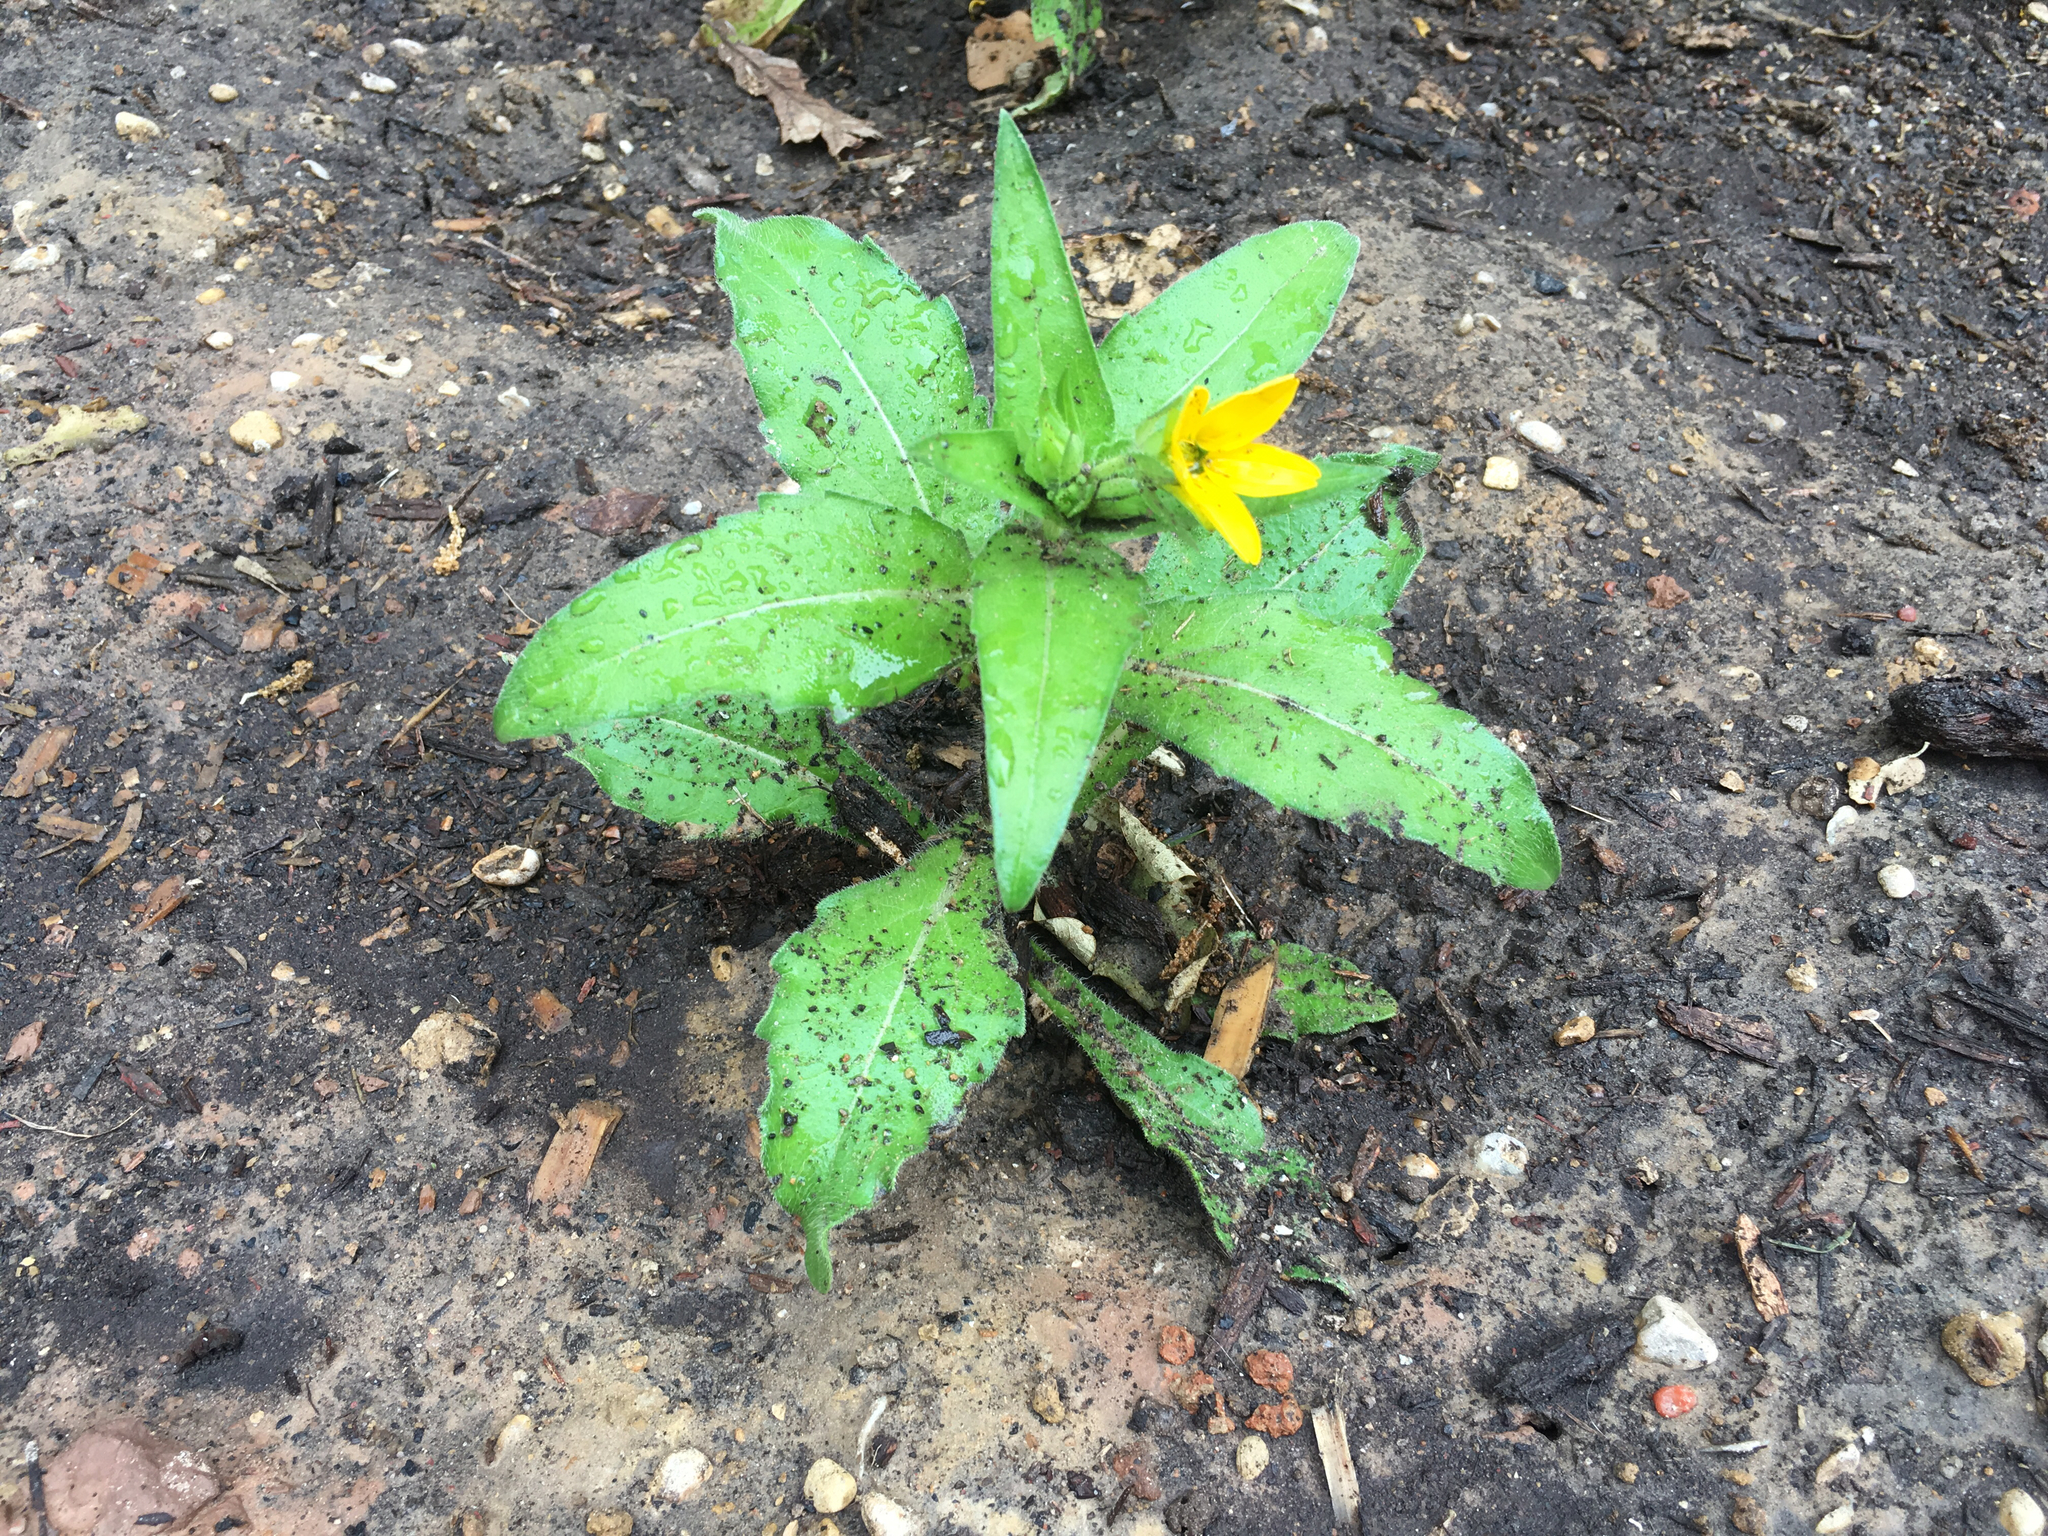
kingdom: Plantae
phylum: Tracheophyta
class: Magnoliopsida
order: Asterales
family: Asteraceae
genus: Lindheimera
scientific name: Lindheimera texana
